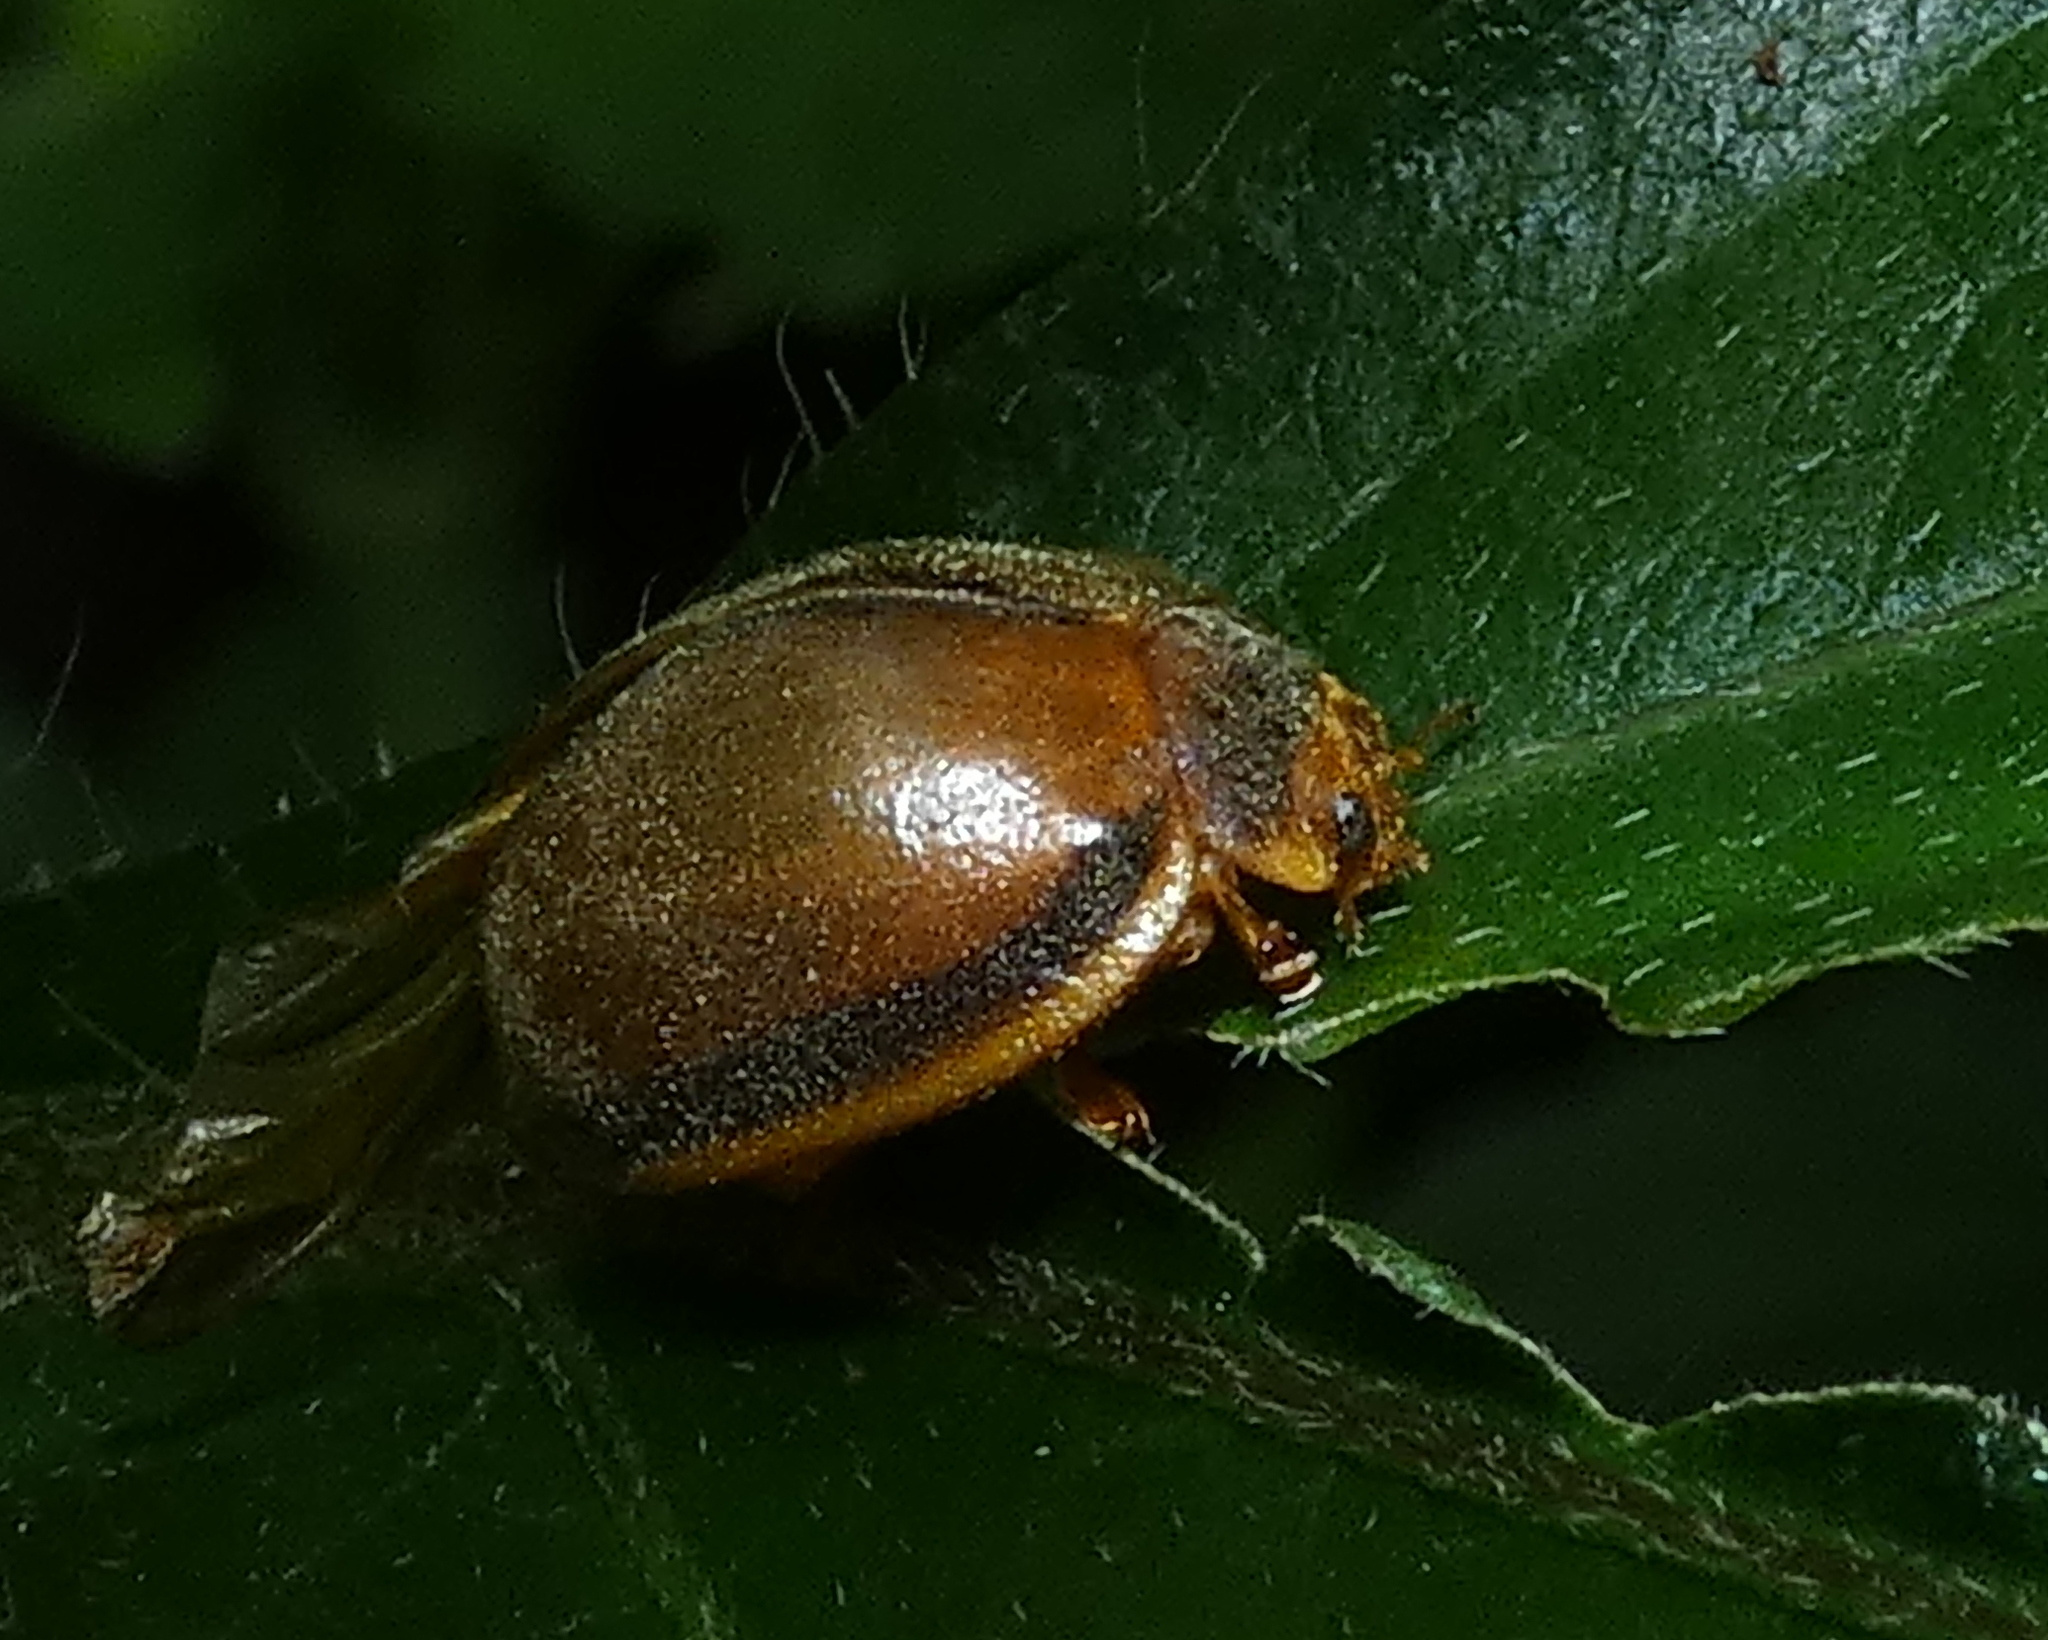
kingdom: Animalia
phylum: Arthropoda
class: Insecta
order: Coleoptera
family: Coccinellidae
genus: Epilachna
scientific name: Epilachna cacica
